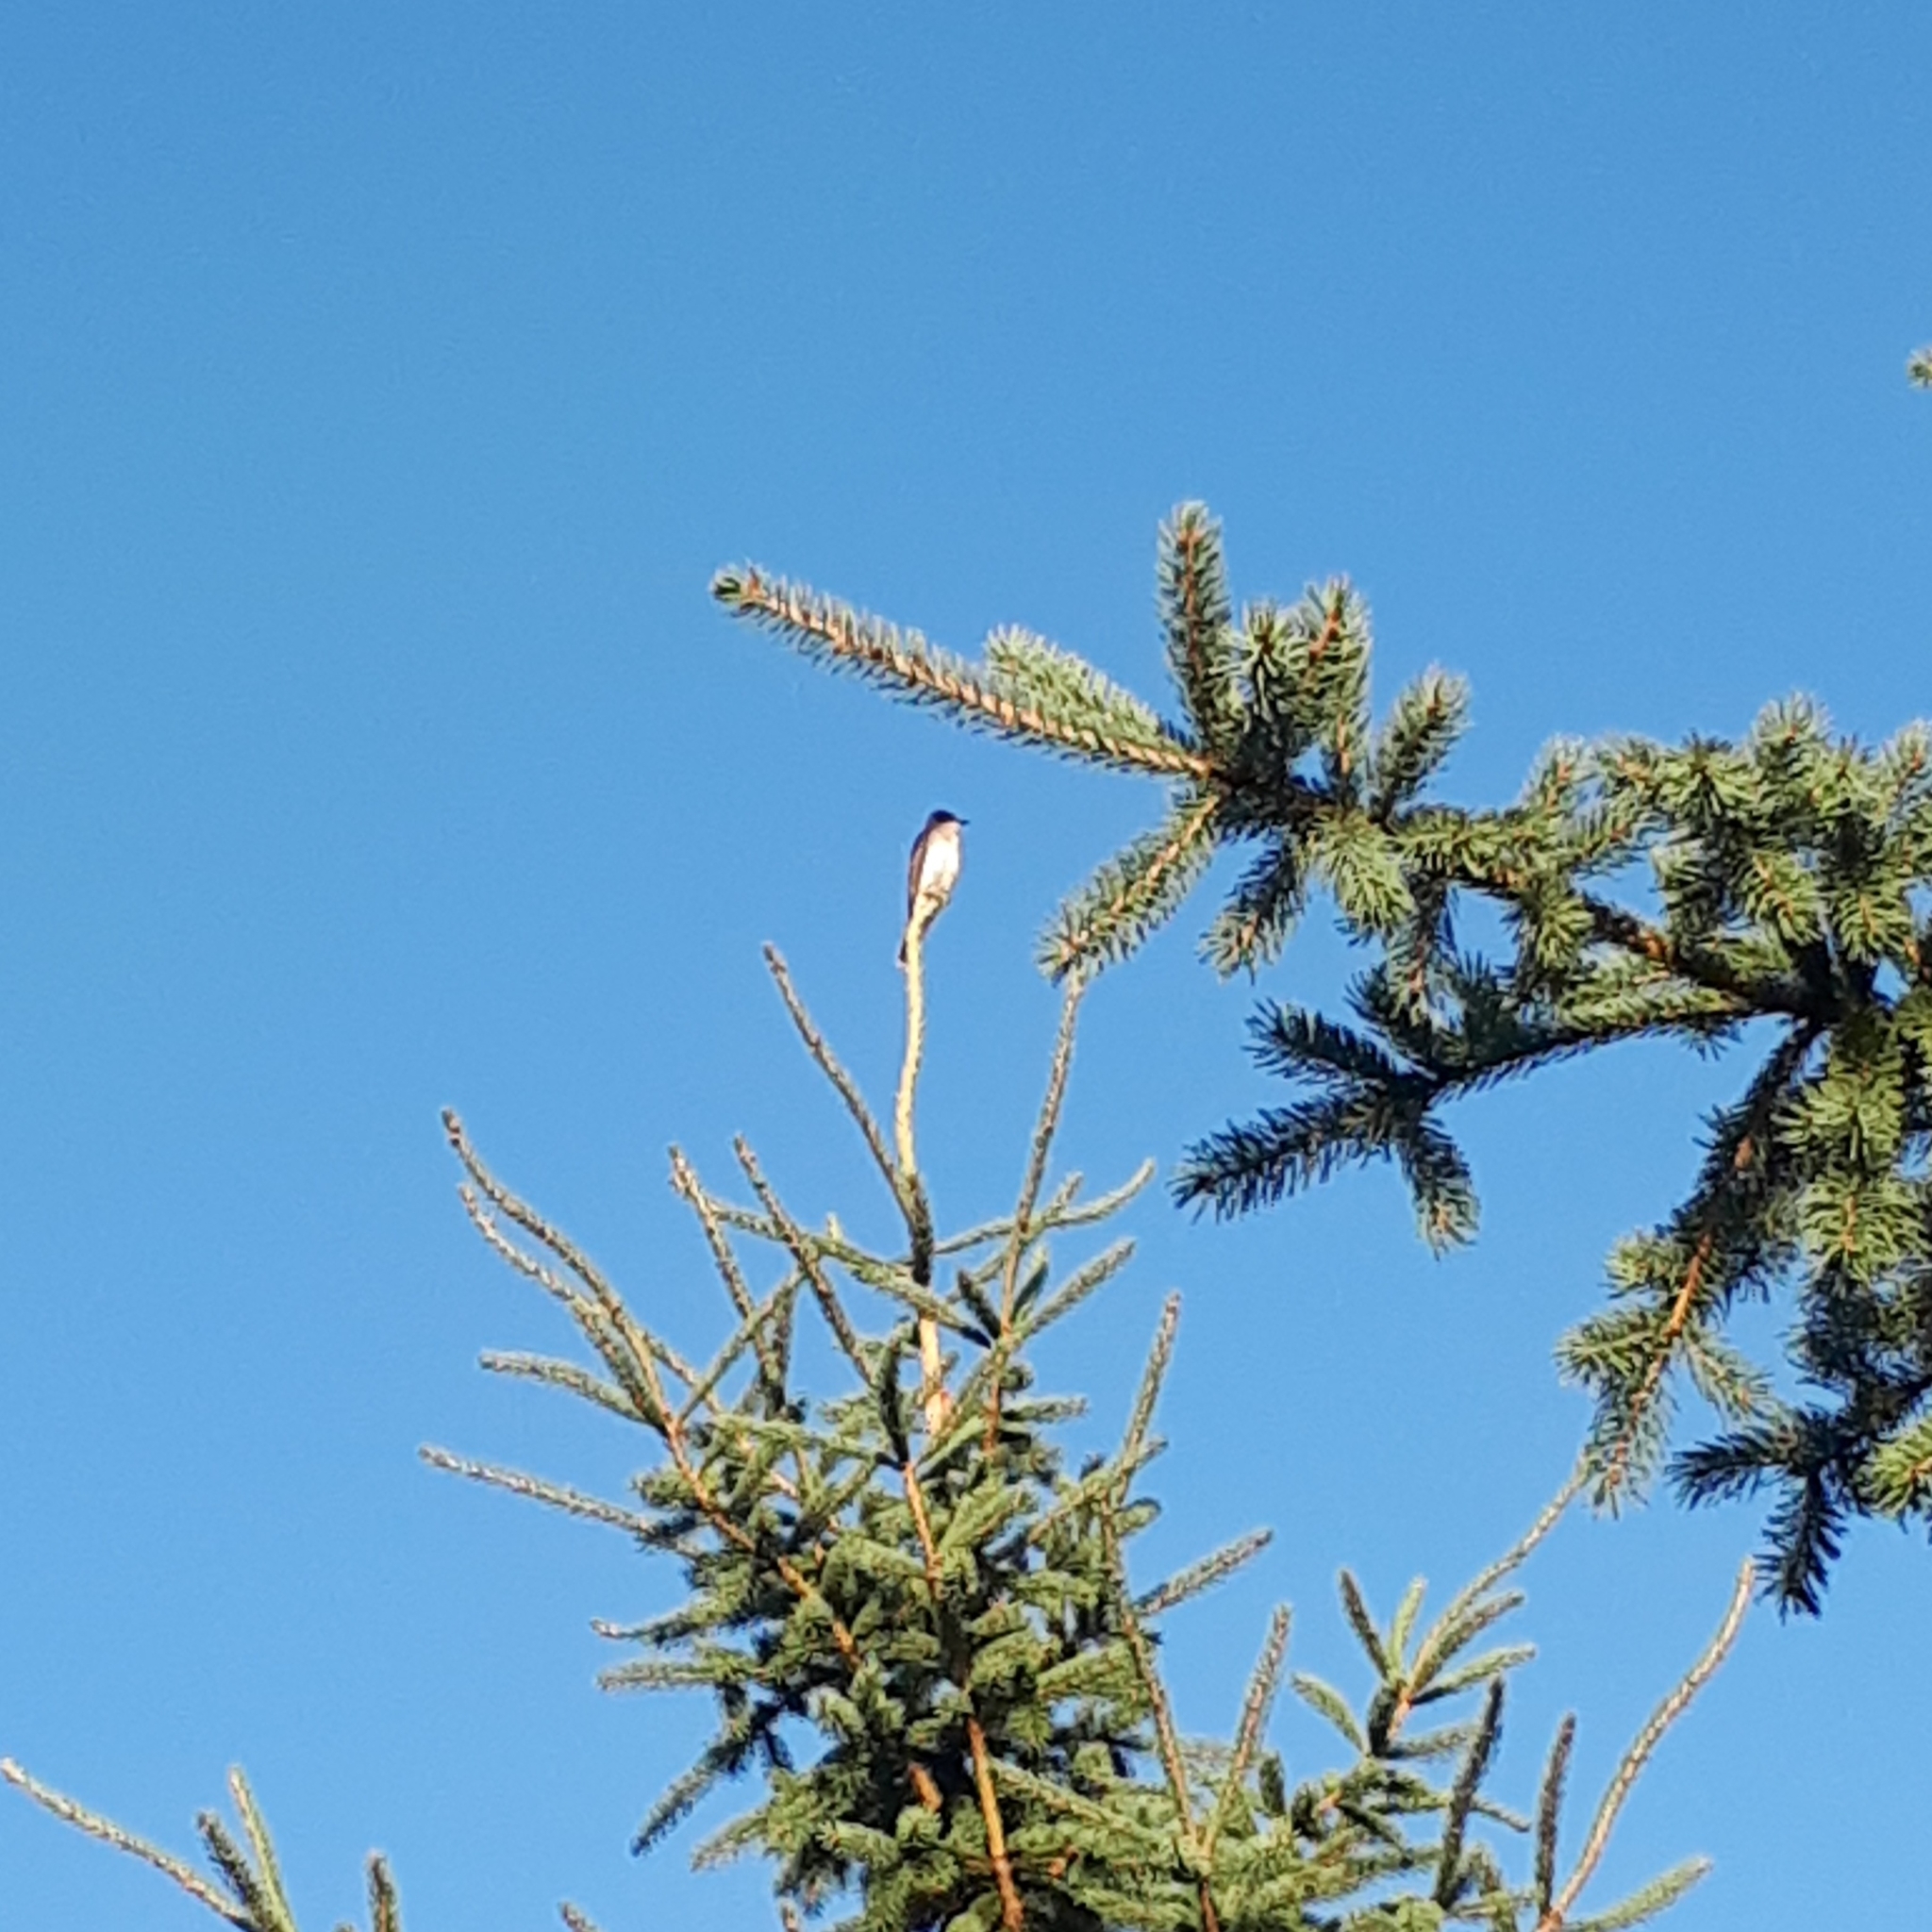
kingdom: Animalia
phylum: Chordata
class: Aves
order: Passeriformes
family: Tyrannidae
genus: Tyrannus
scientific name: Tyrannus tyrannus
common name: Eastern kingbird
